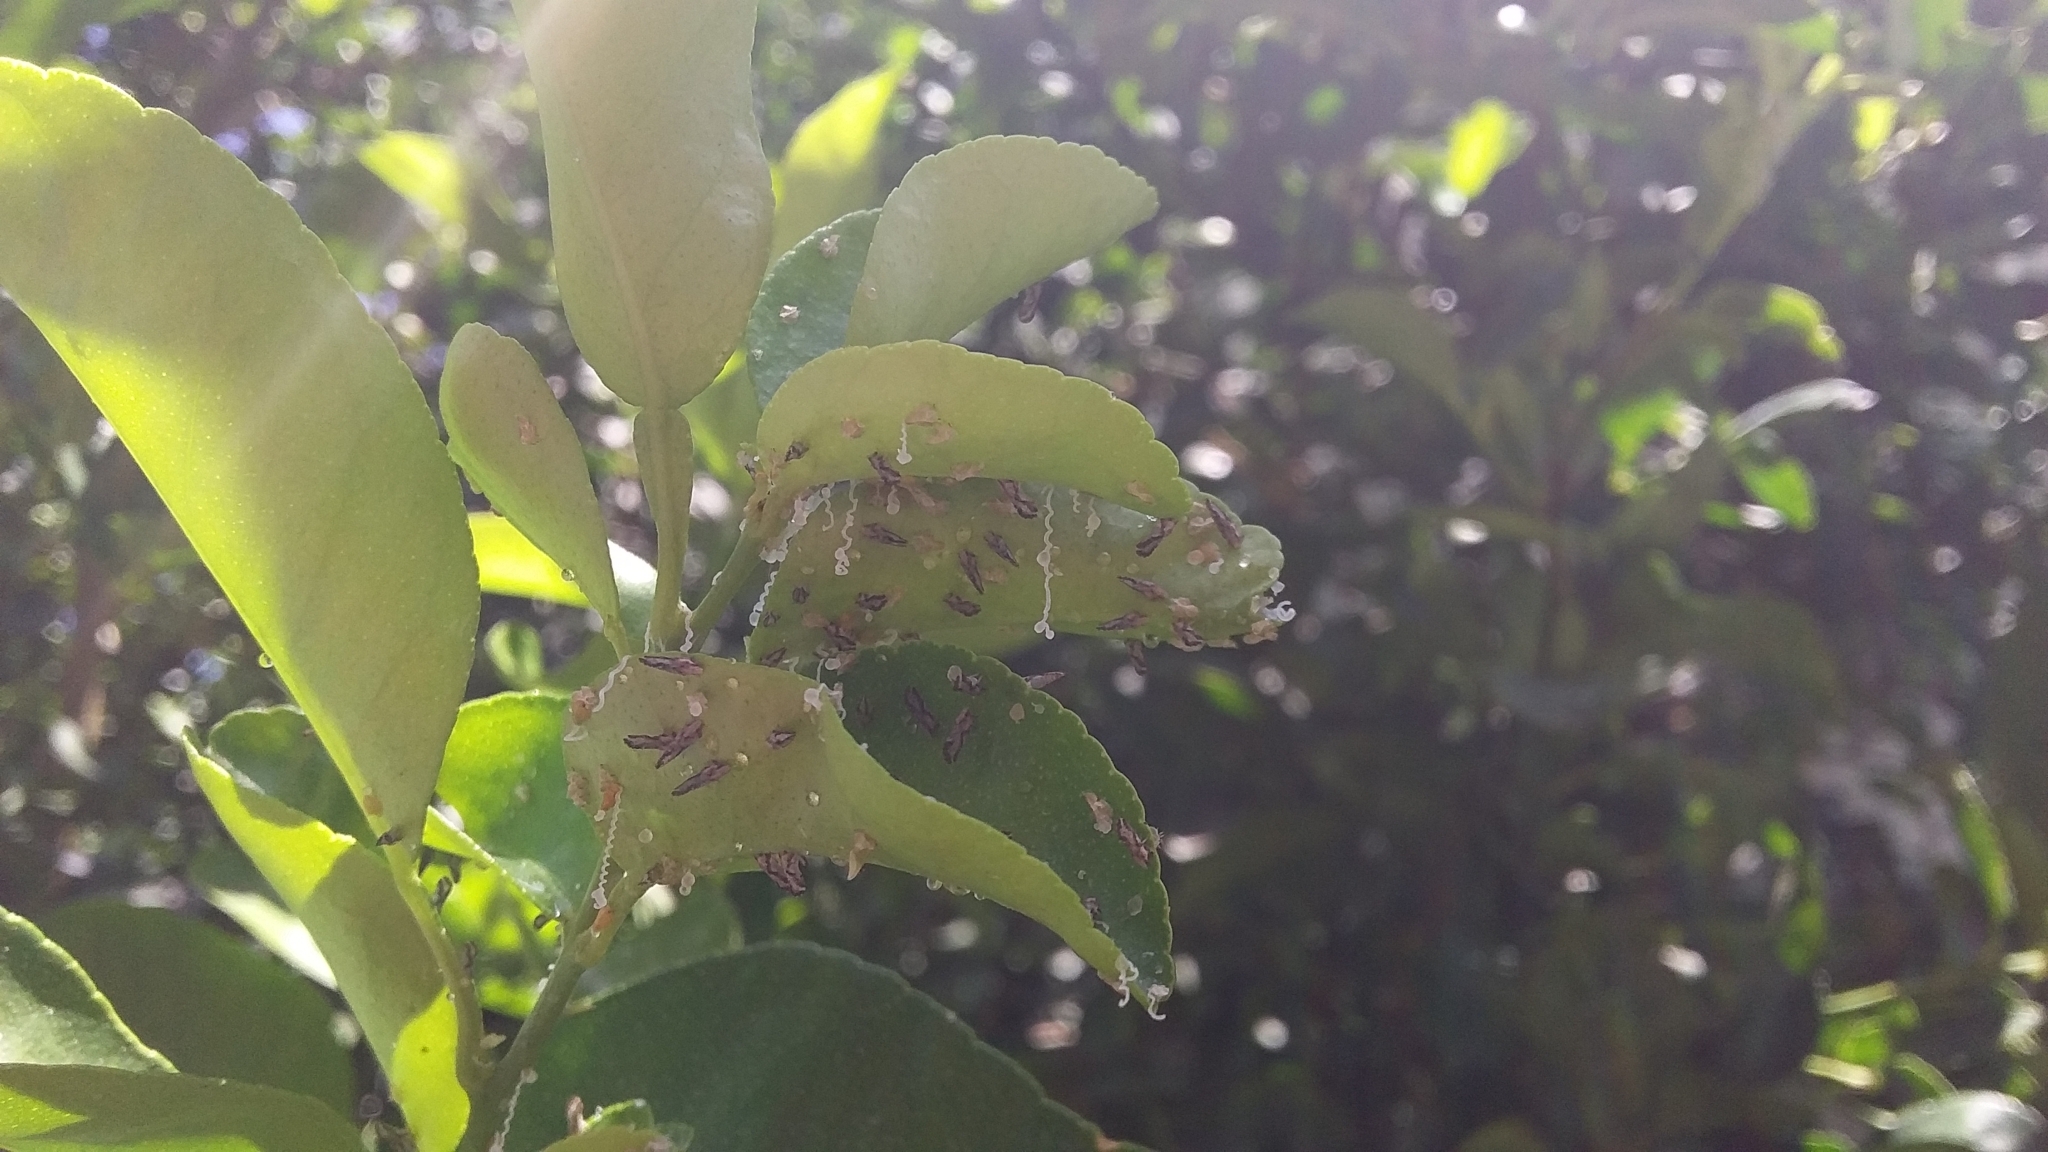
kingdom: Animalia
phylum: Arthropoda
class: Insecta
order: Hemiptera
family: Liviidae
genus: Diaphorina
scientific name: Diaphorina citri
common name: Asian citrus psyllid
